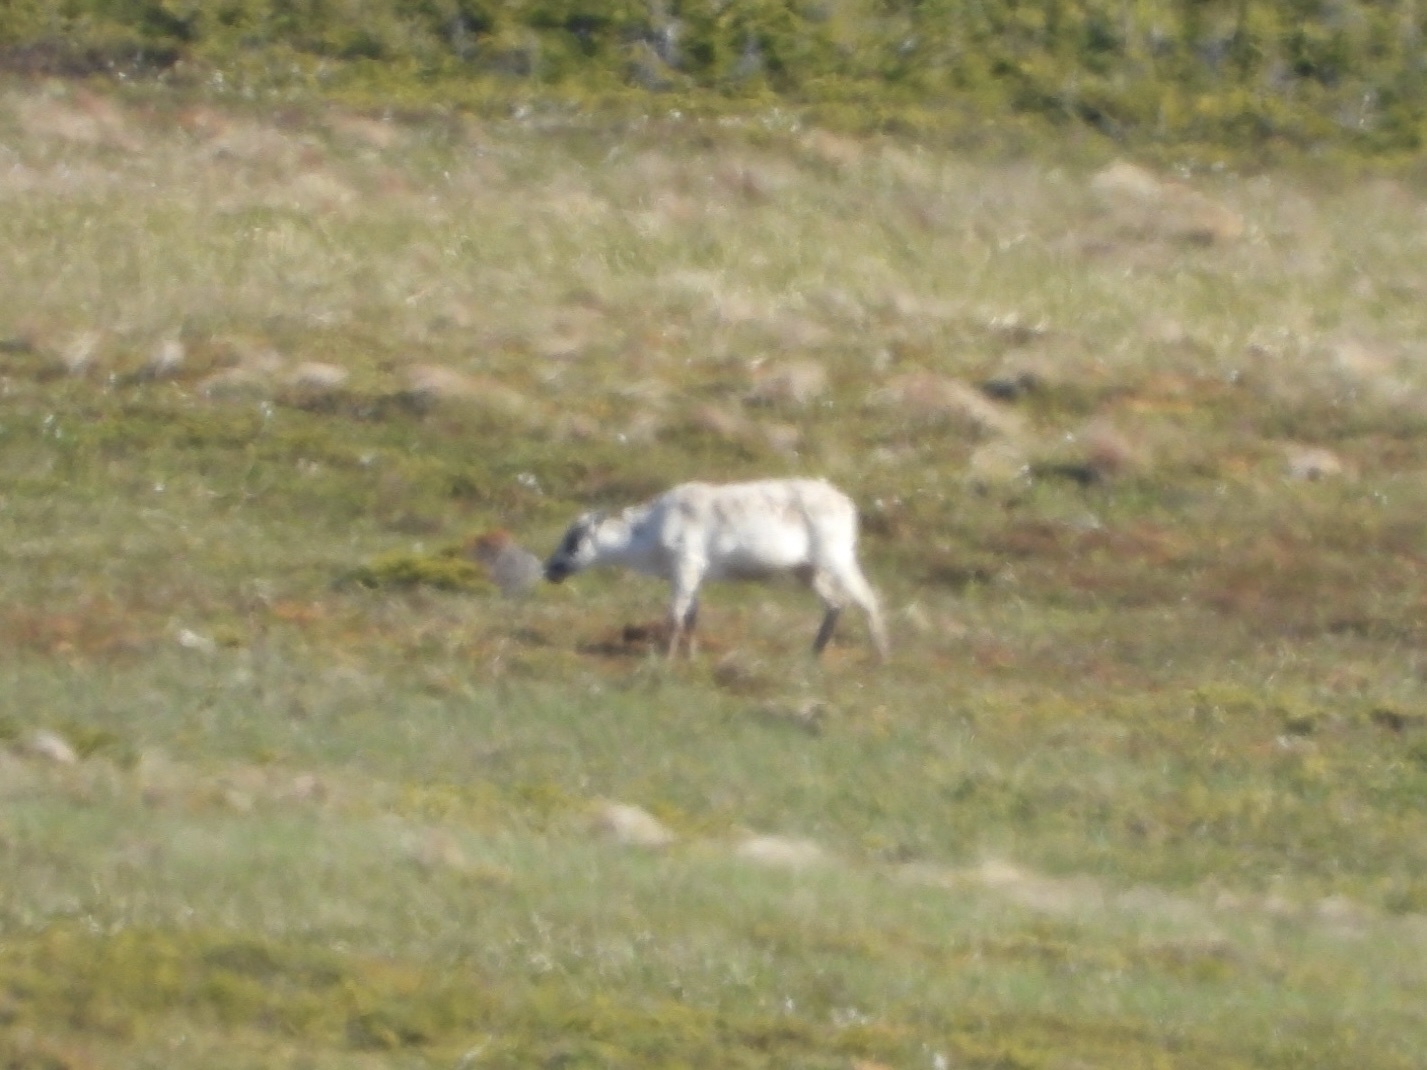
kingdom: Animalia
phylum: Chordata
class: Mammalia
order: Artiodactyla
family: Cervidae
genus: Rangifer
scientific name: Rangifer tarandus
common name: Reindeer
